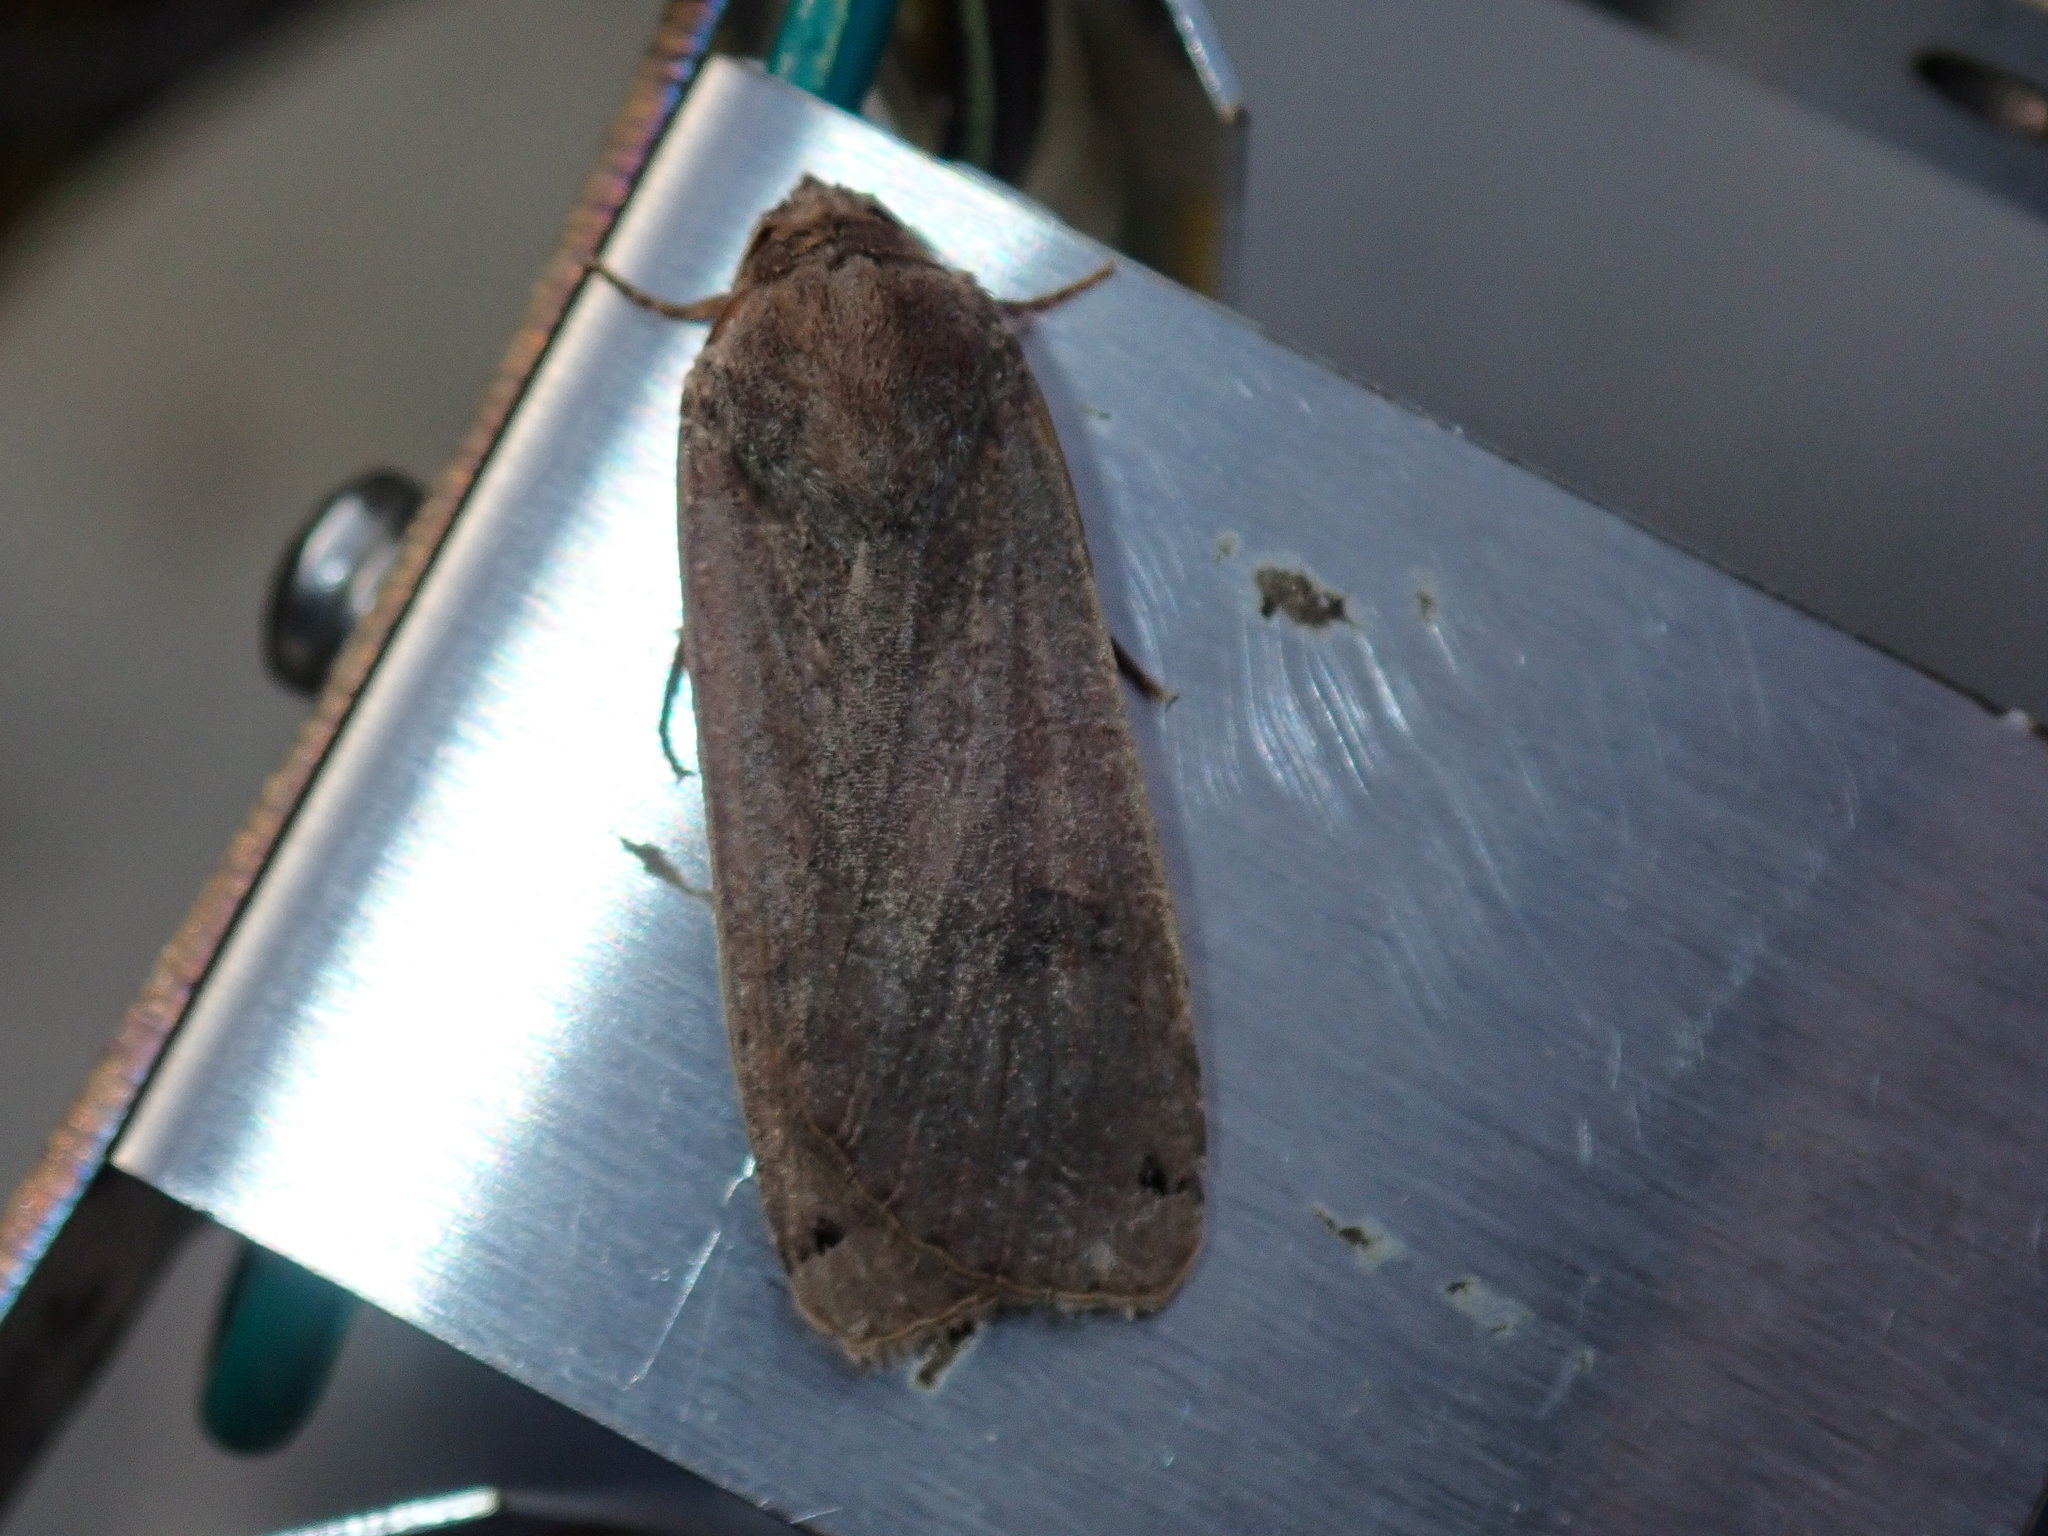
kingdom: Animalia
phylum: Arthropoda
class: Insecta
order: Lepidoptera
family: Noctuidae
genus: Noctua
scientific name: Noctua pronuba
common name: Large yellow underwing
